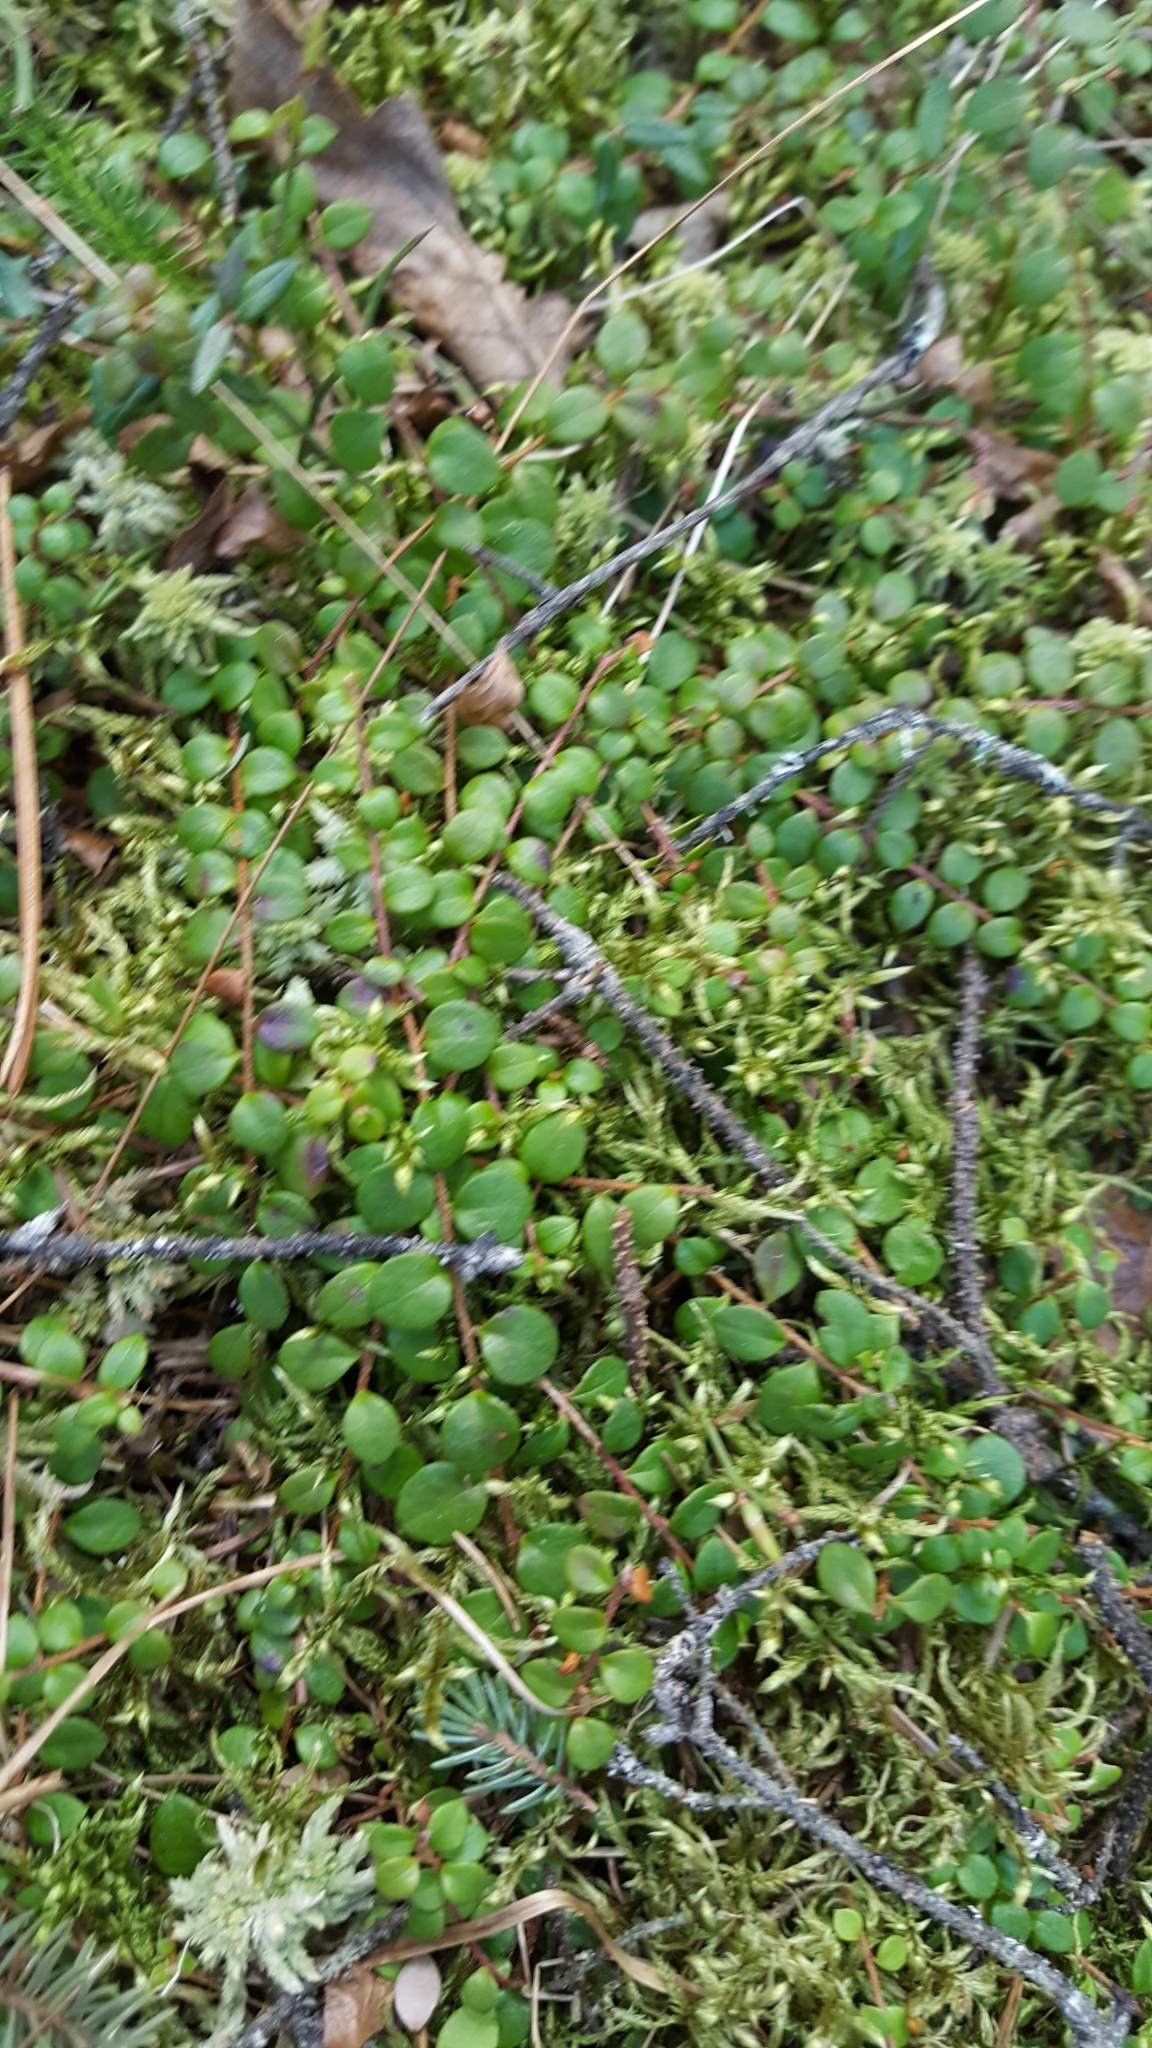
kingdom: Plantae
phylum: Tracheophyta
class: Magnoliopsida
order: Ericales
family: Ericaceae
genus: Gaultheria
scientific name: Gaultheria hispidula
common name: Cancer wintergreen
